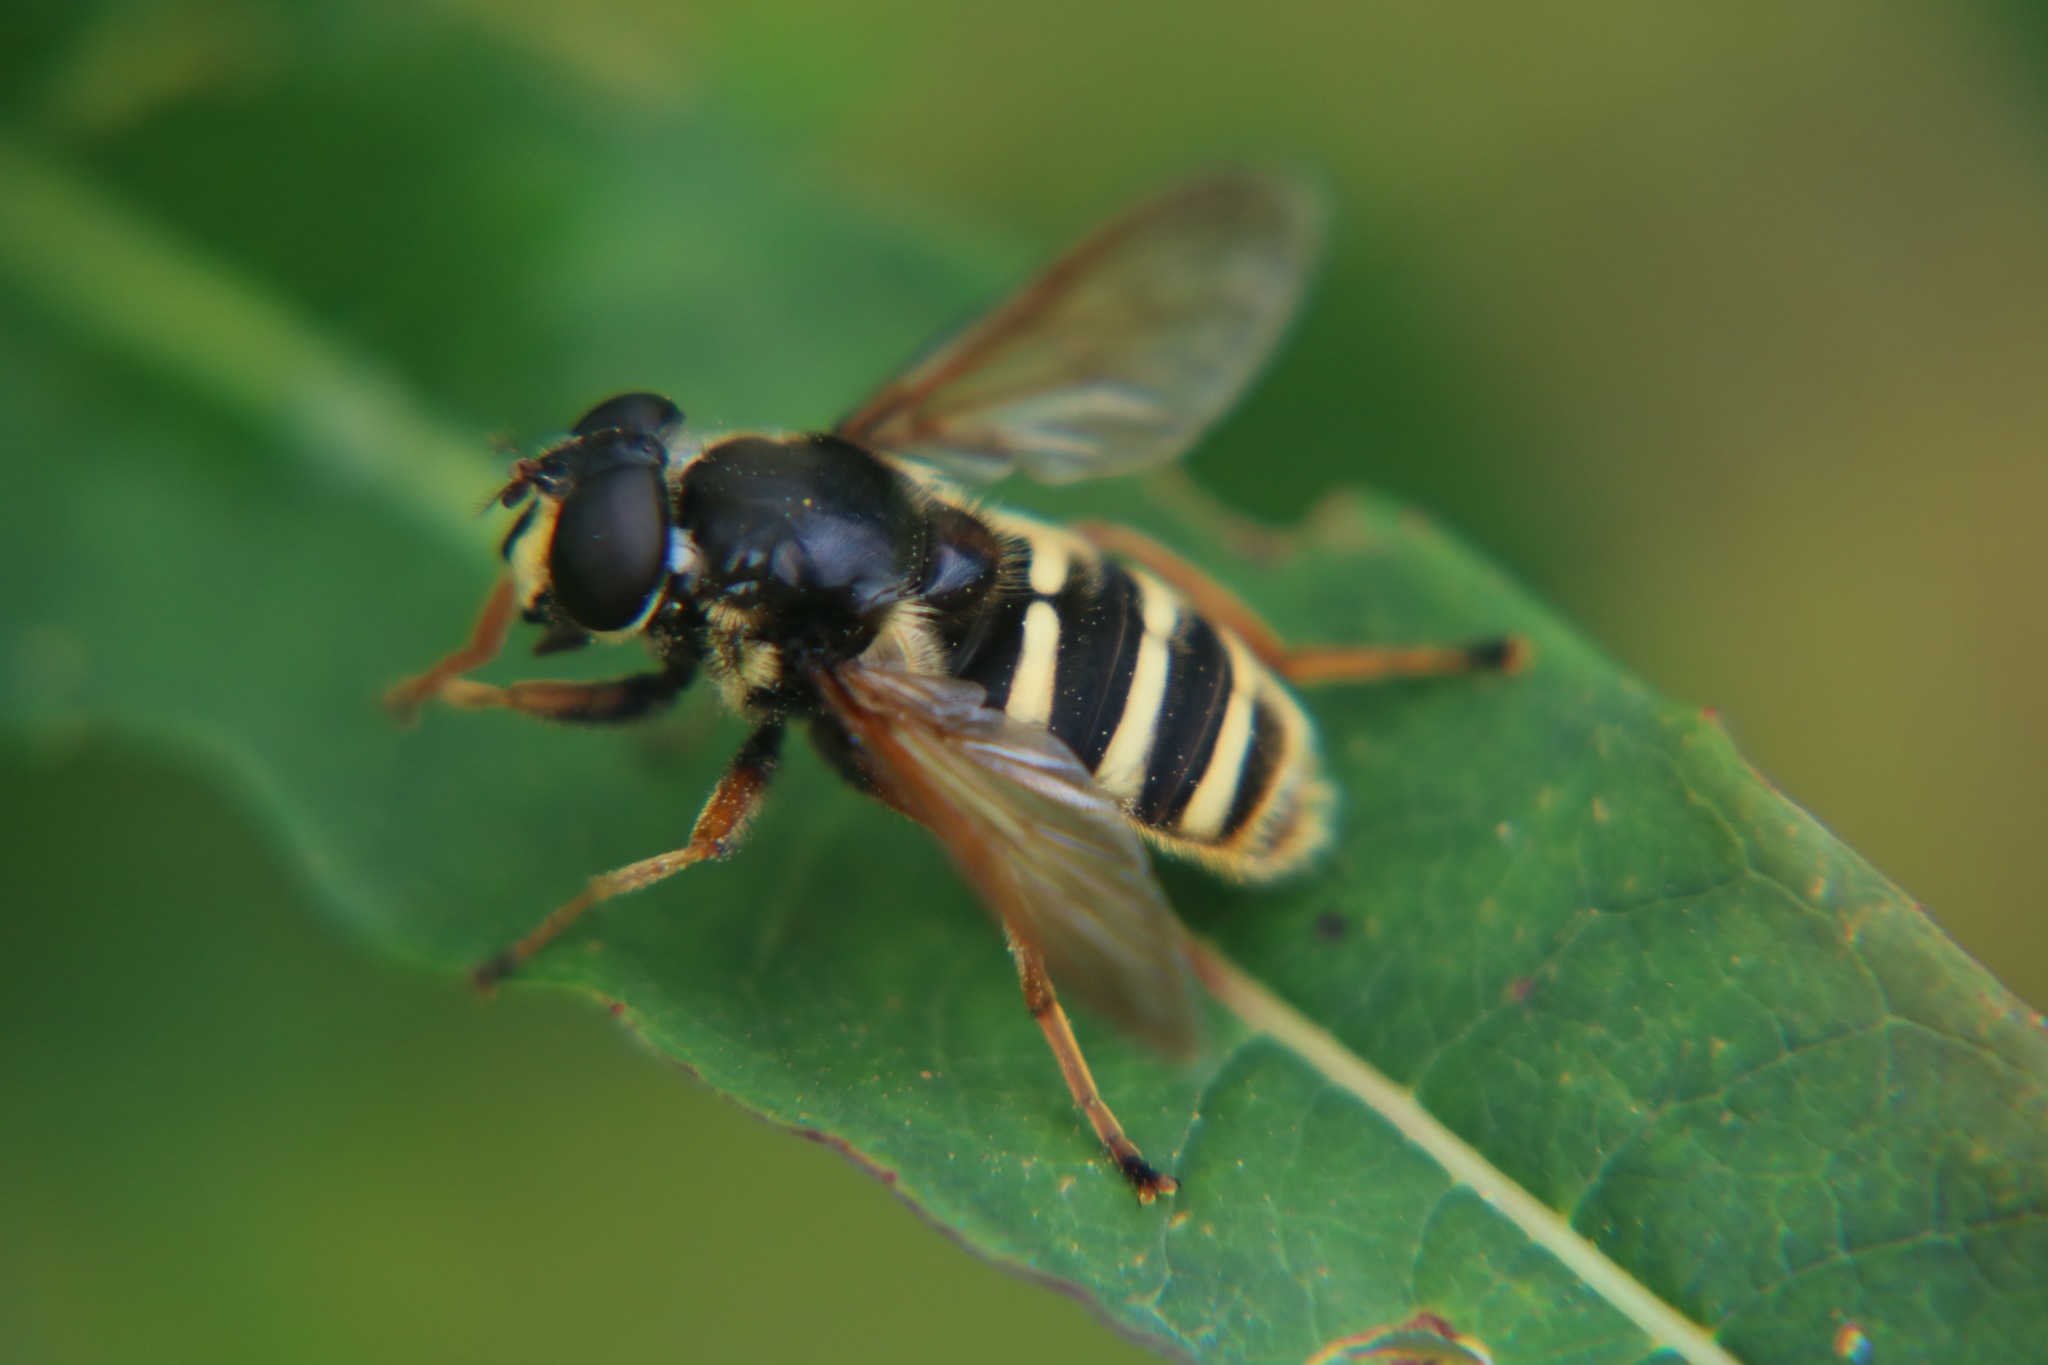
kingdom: Animalia
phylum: Arthropoda
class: Insecta
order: Diptera
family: Syrphidae
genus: Sericomyia
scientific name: Sericomyia silentis
